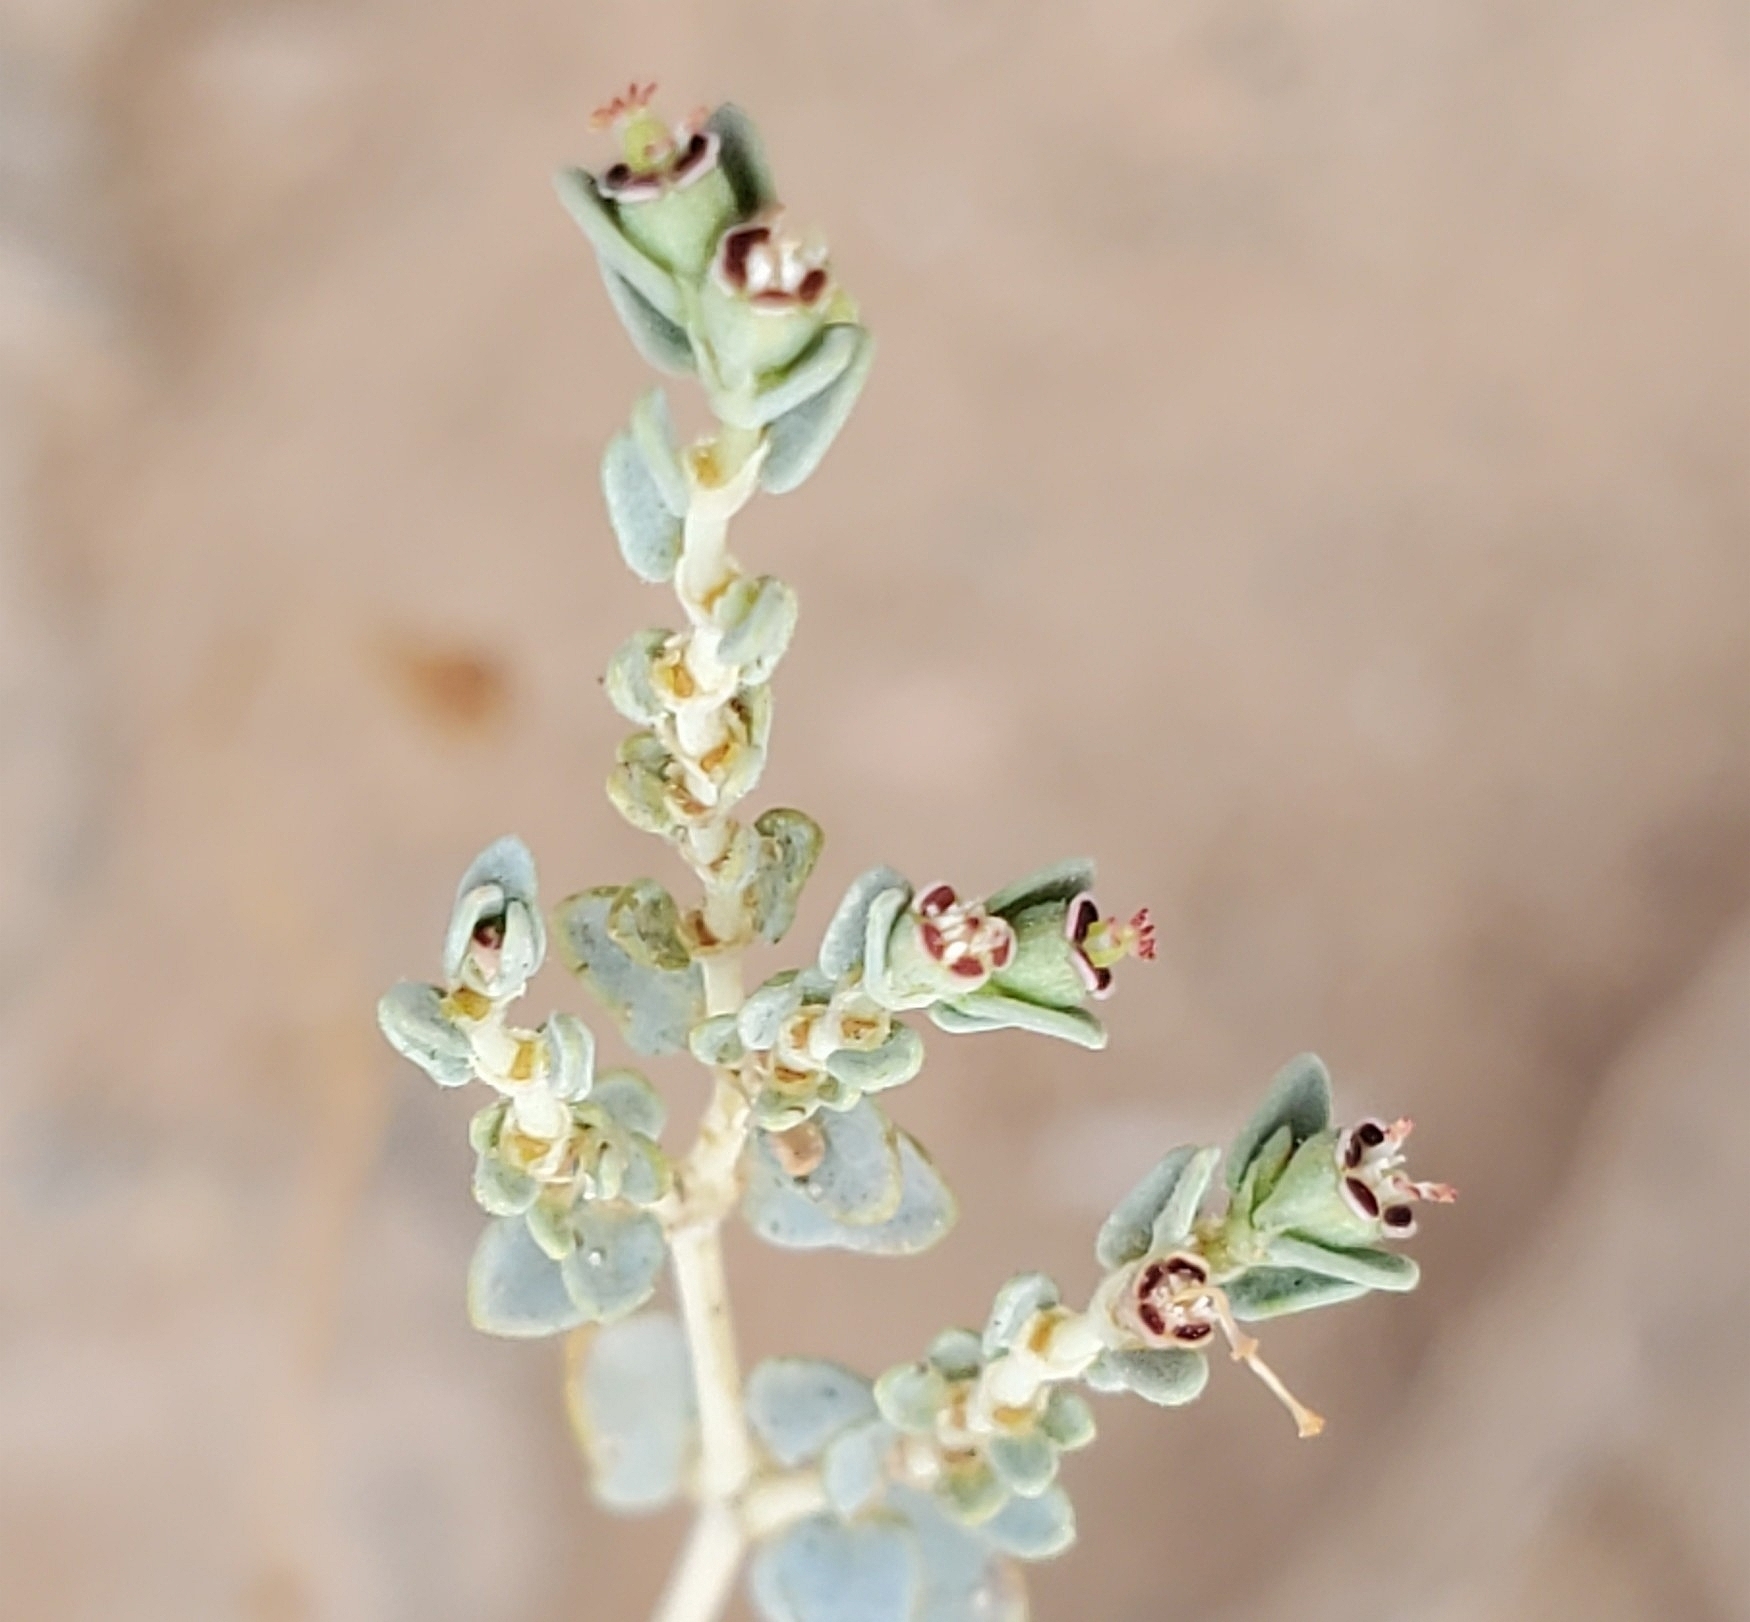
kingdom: Plantae
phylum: Tracheophyta
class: Magnoliopsida
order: Malpighiales
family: Euphorbiaceae
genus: Euphorbia
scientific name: Euphorbia polycarpa
